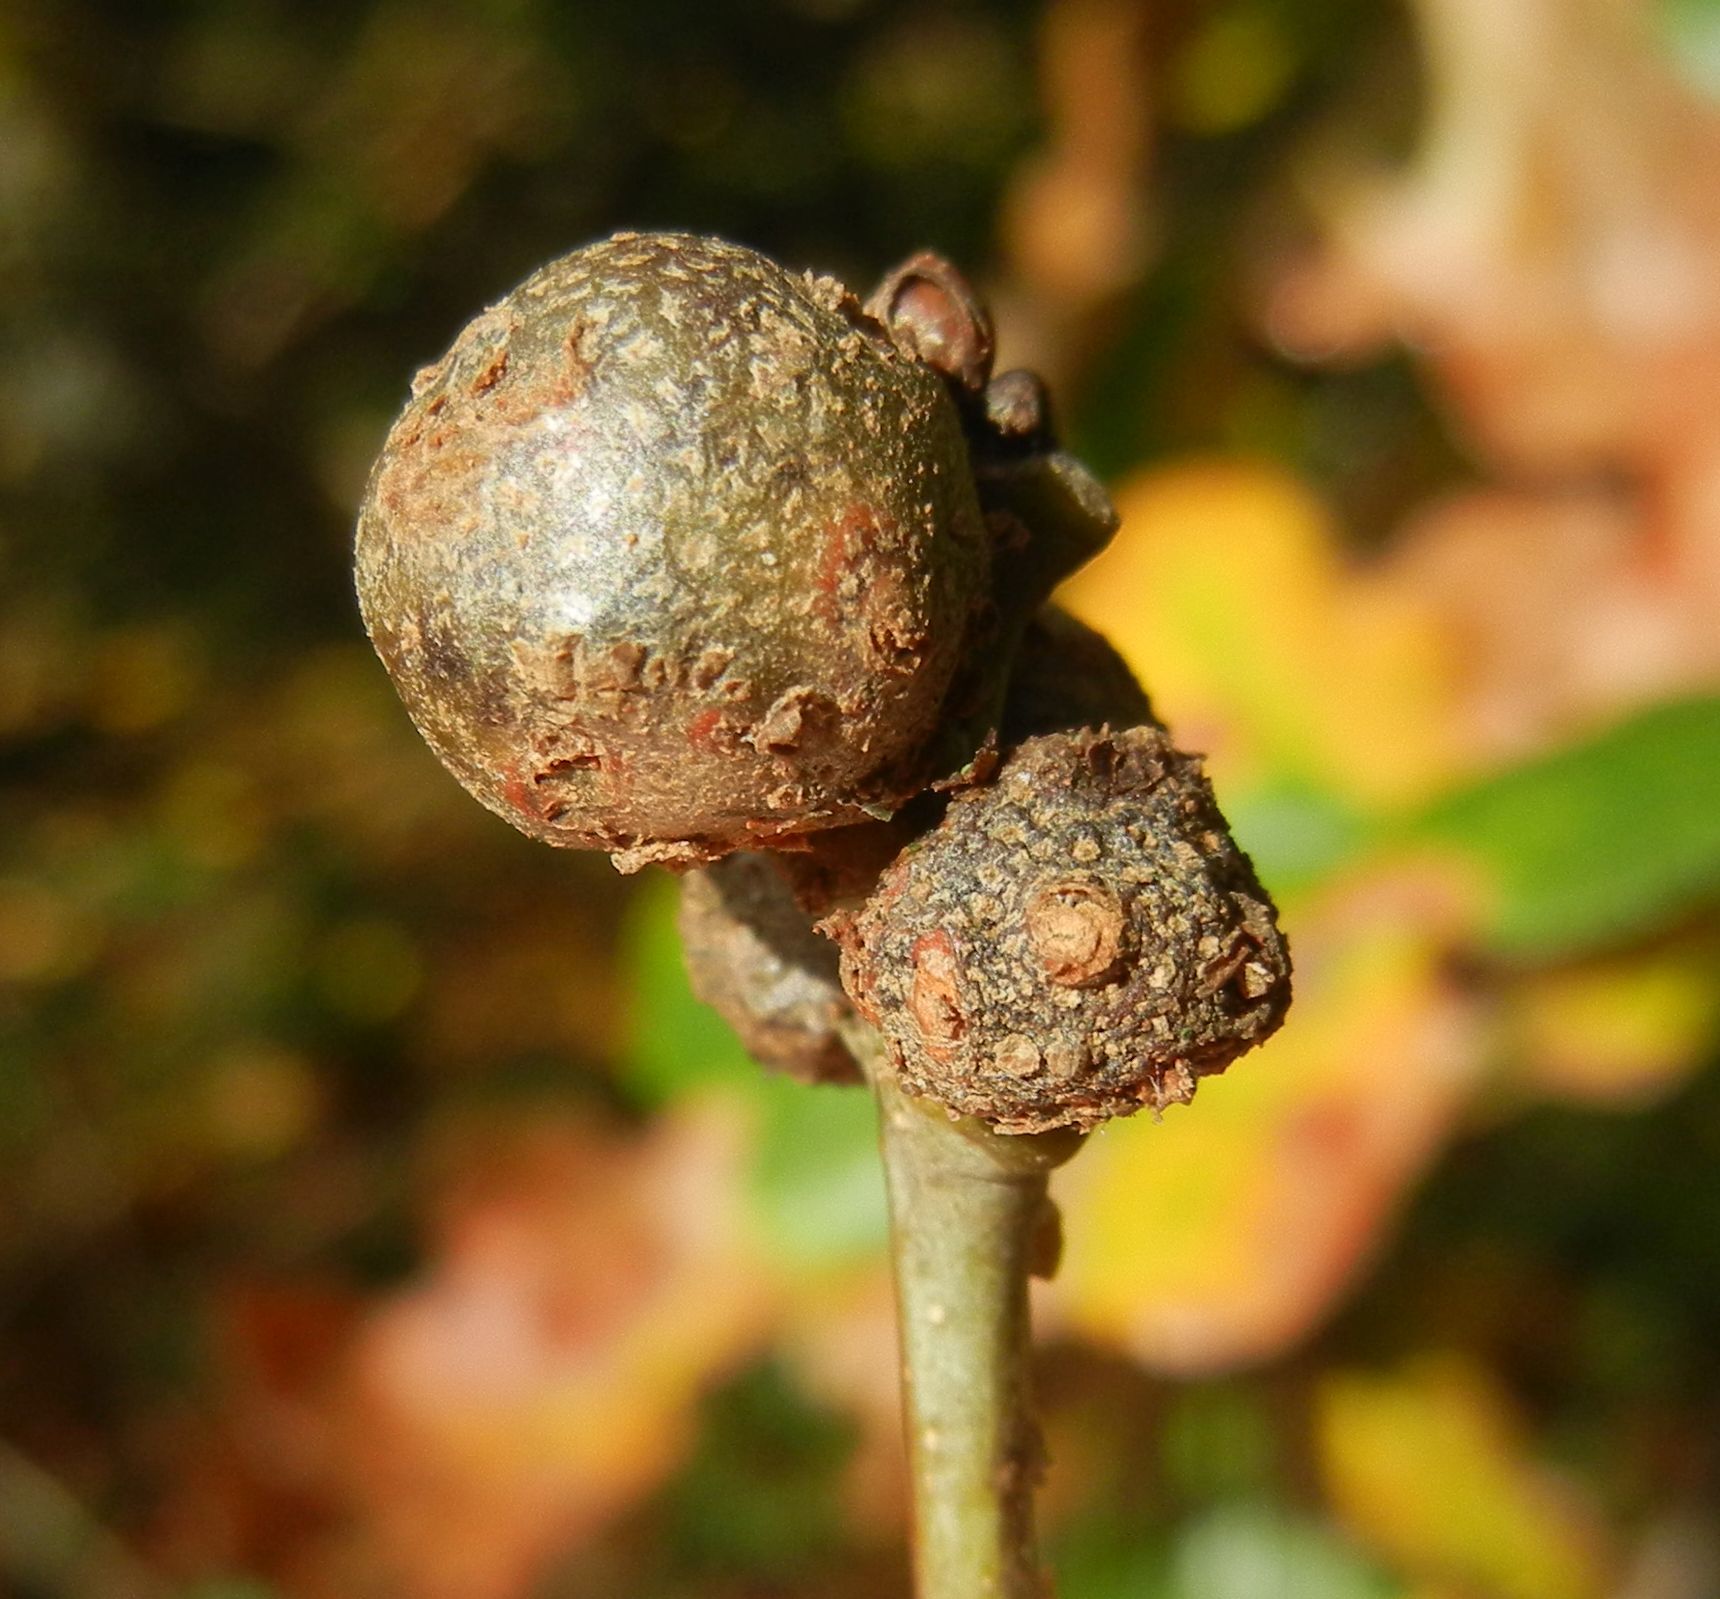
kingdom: Animalia
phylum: Arthropoda
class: Insecta
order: Hymenoptera
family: Cynipidae
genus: Andricus
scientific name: Andricus lignicolus
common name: Cola-nut gall
